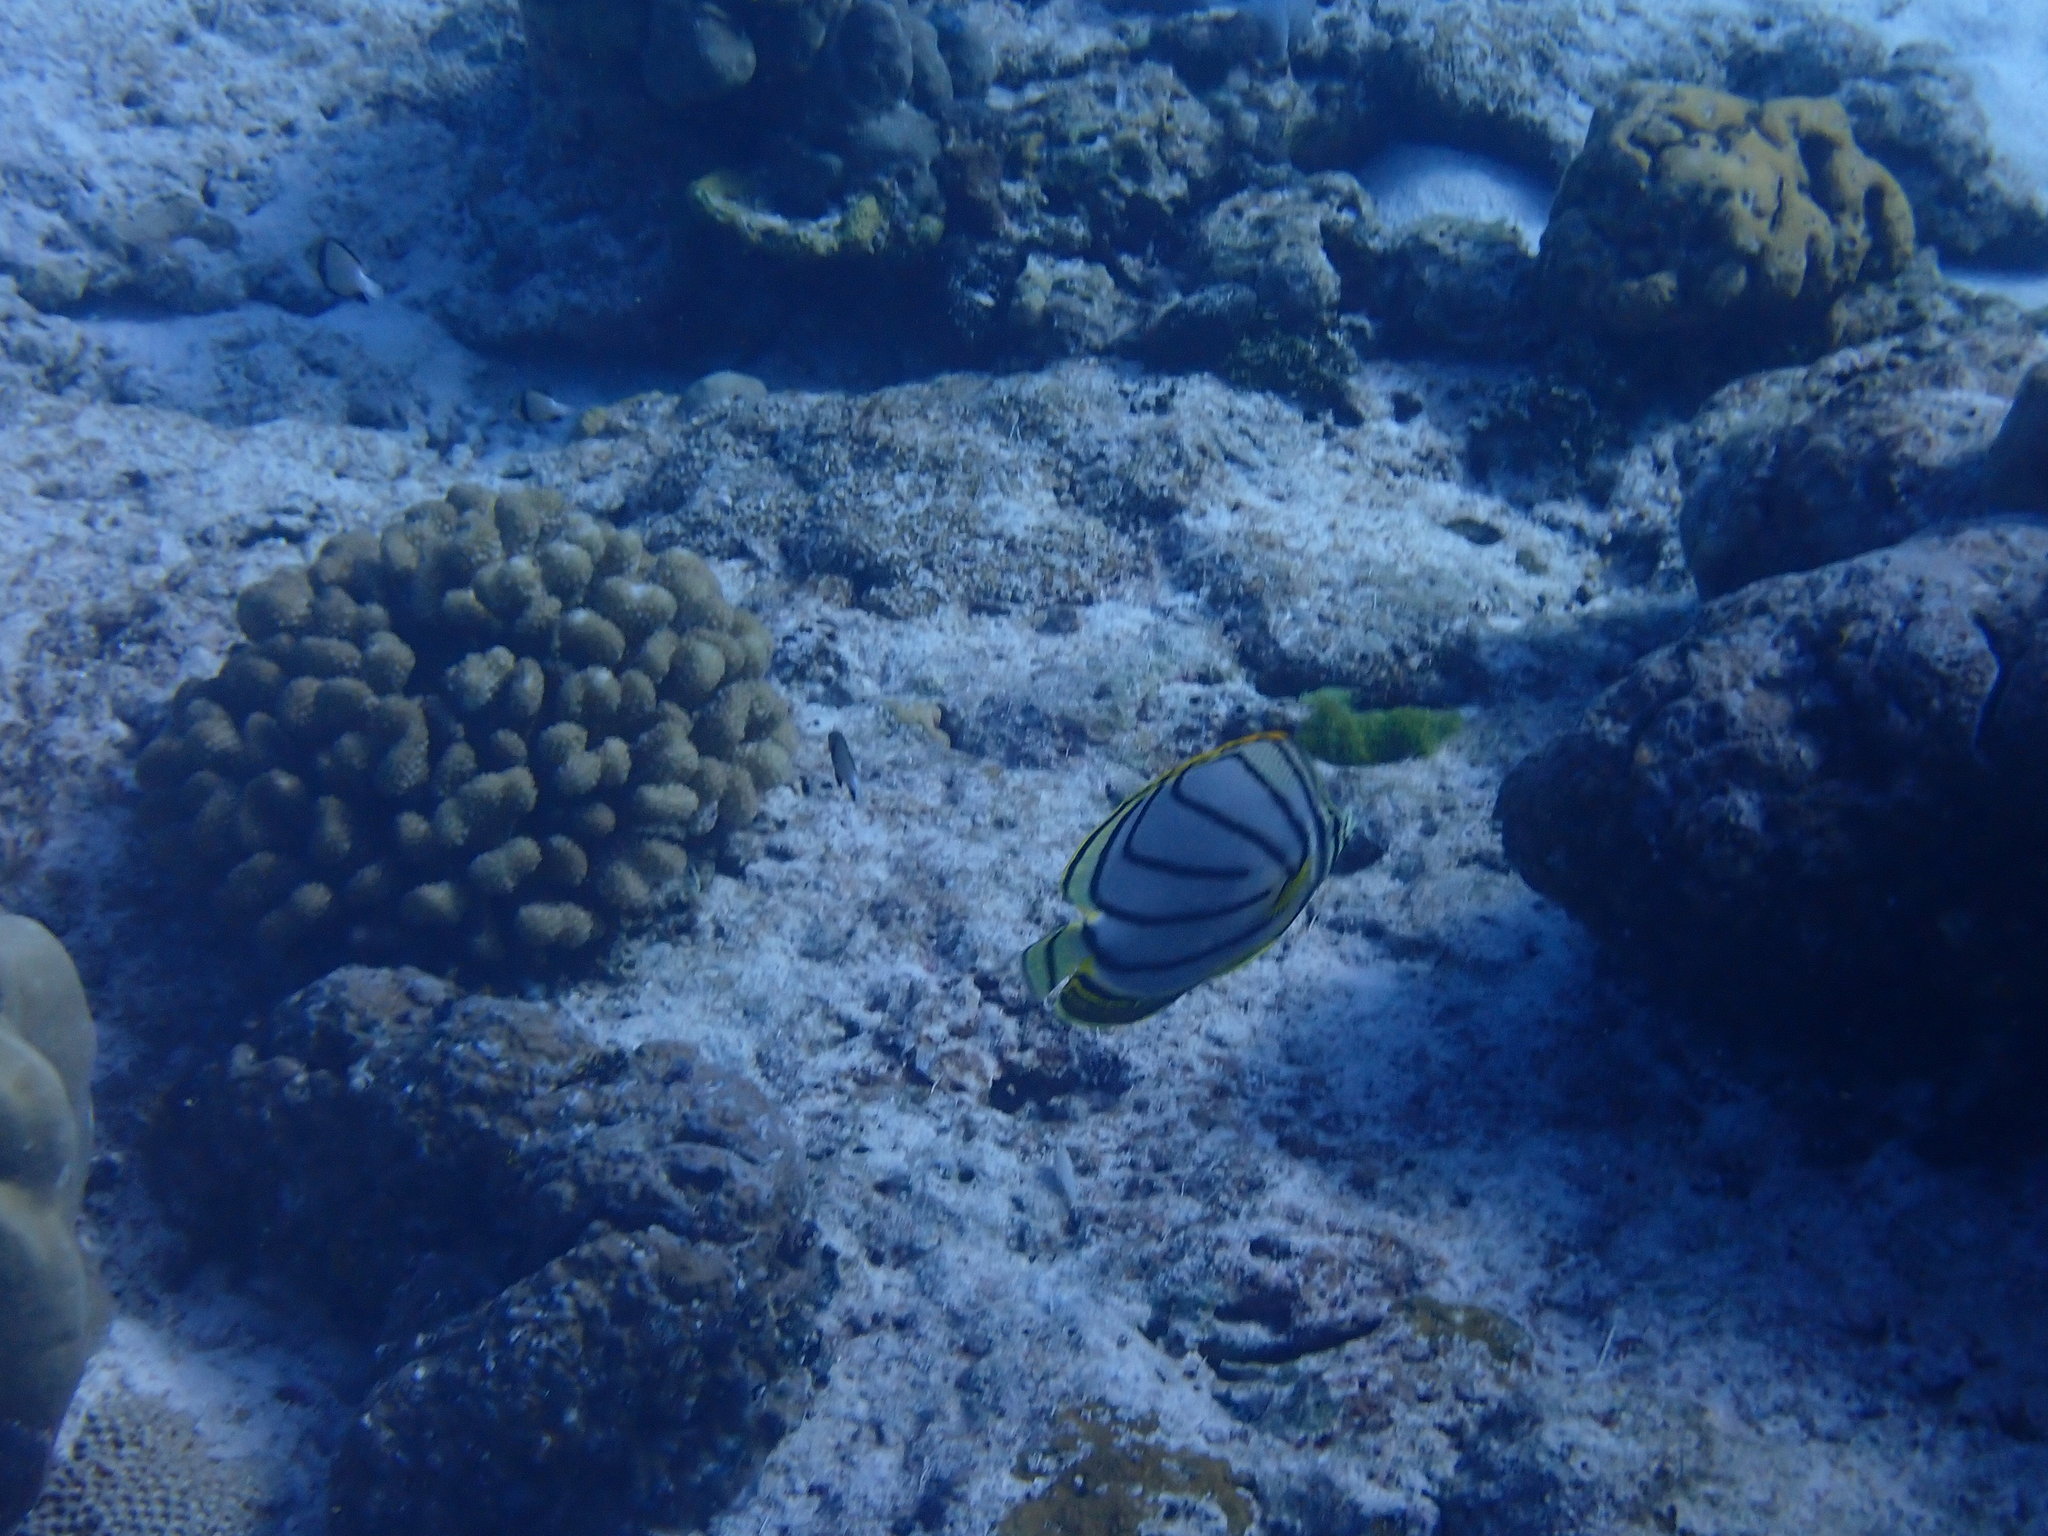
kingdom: Animalia
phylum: Chordata
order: Perciformes
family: Chaetodontidae
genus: Chaetodon
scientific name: Chaetodon meyeri
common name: Meyer's butterflyfish
